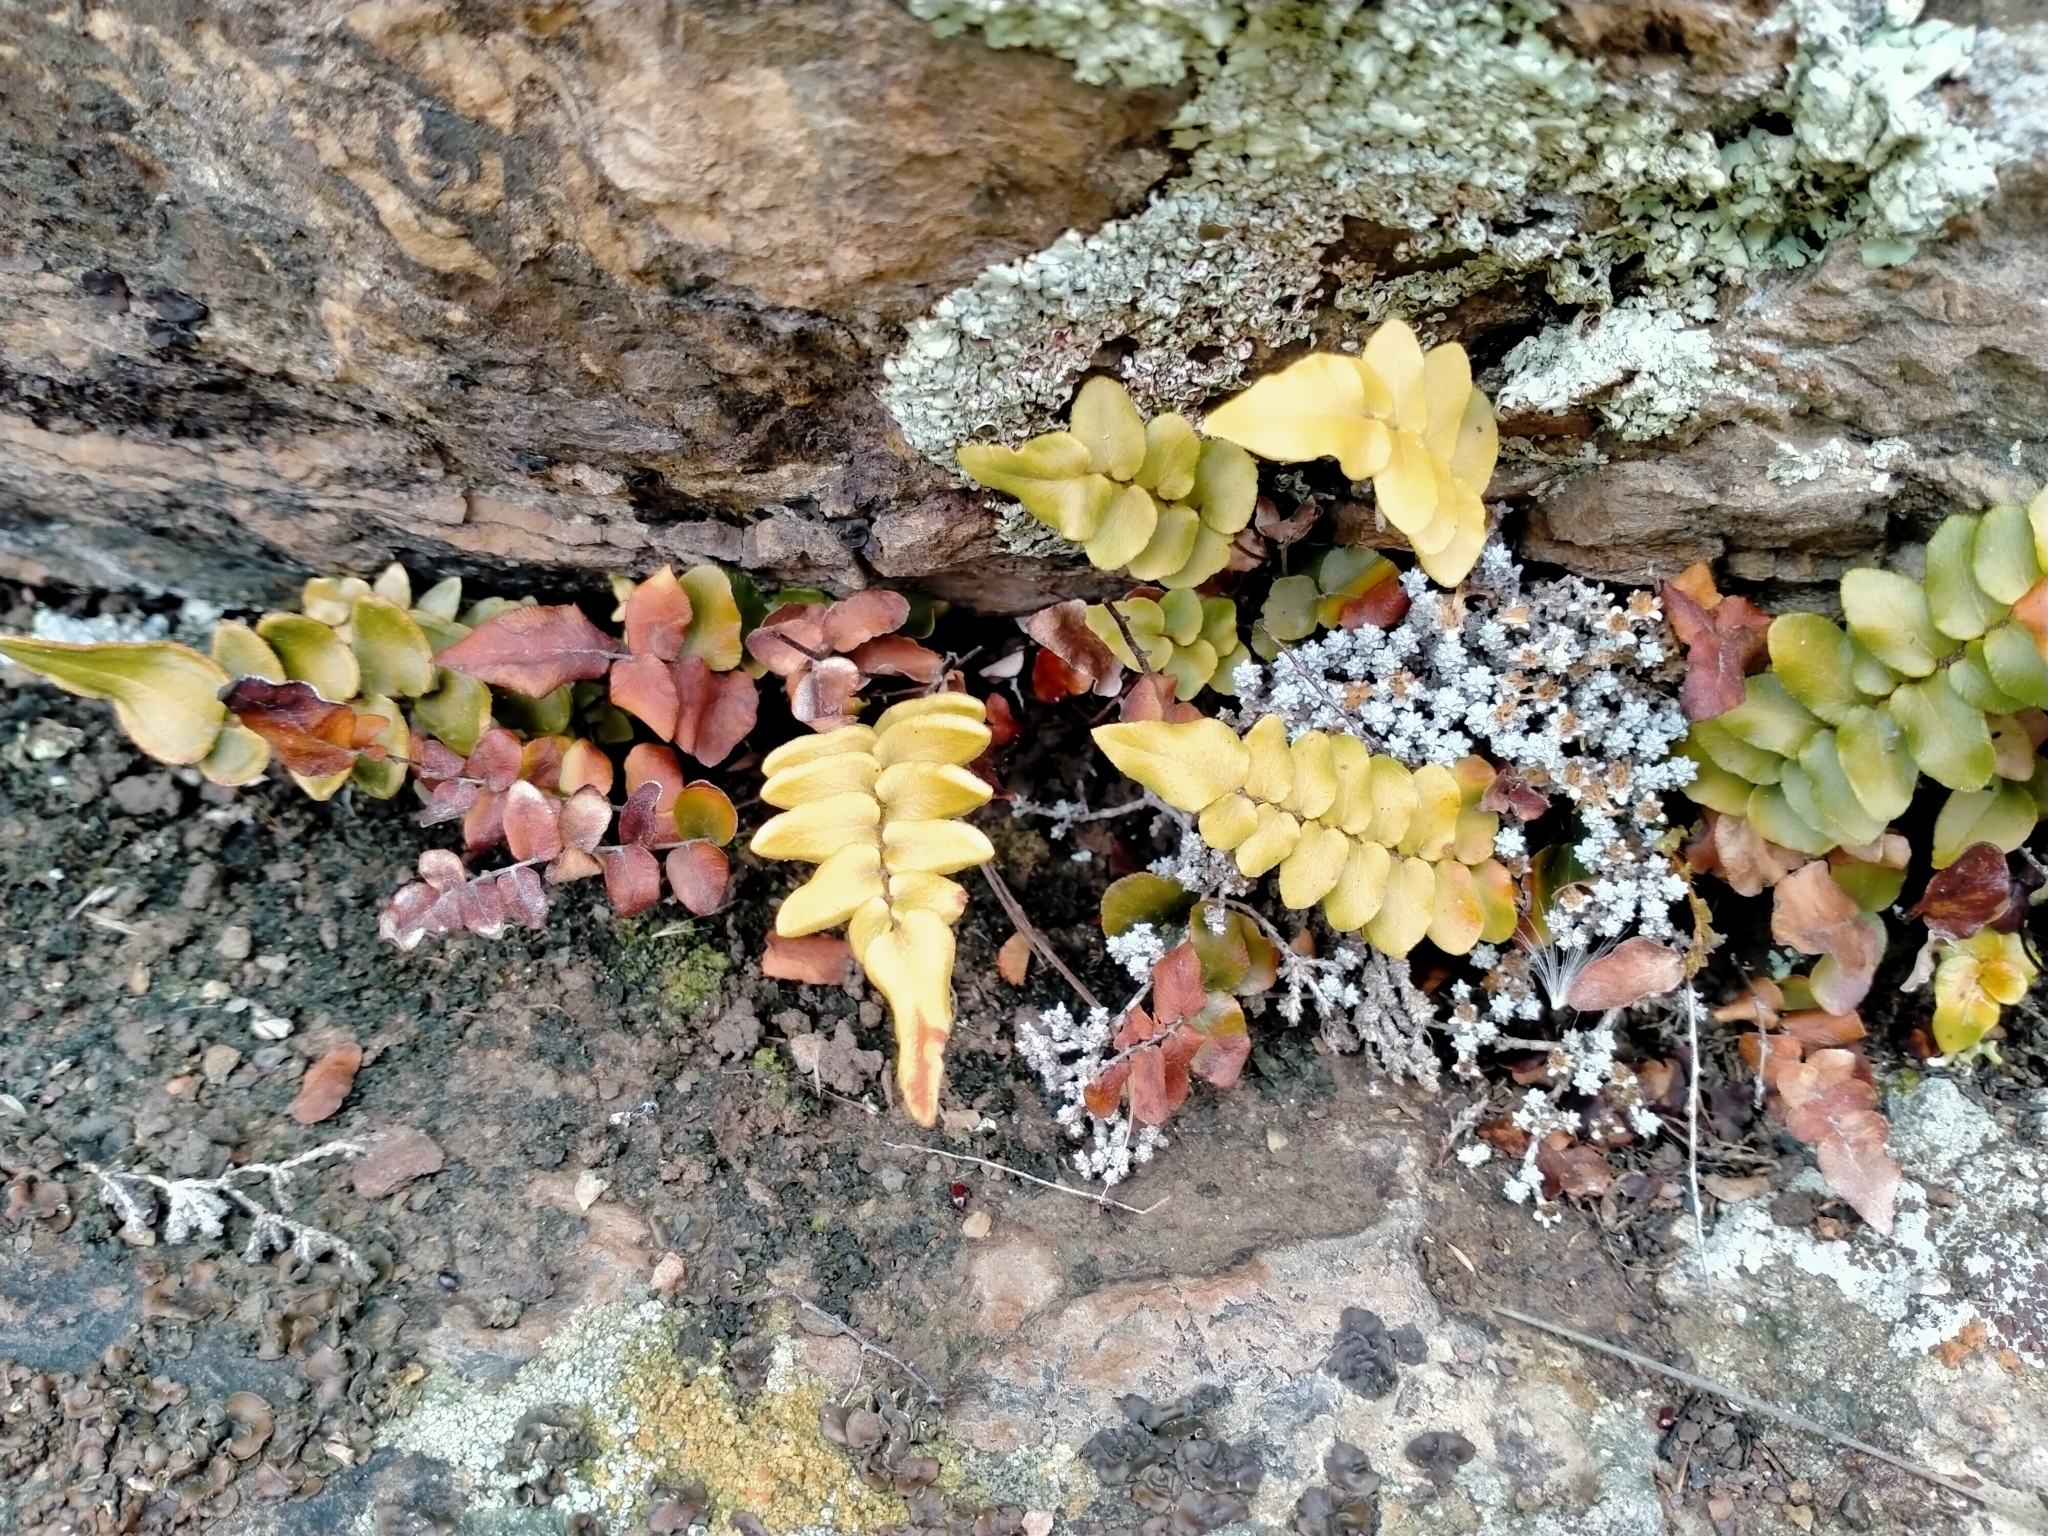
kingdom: Plantae
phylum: Tracheophyta
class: Polypodiopsida
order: Polypodiales
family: Pteridaceae
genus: Pellaea
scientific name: Pellaea calidirupium
